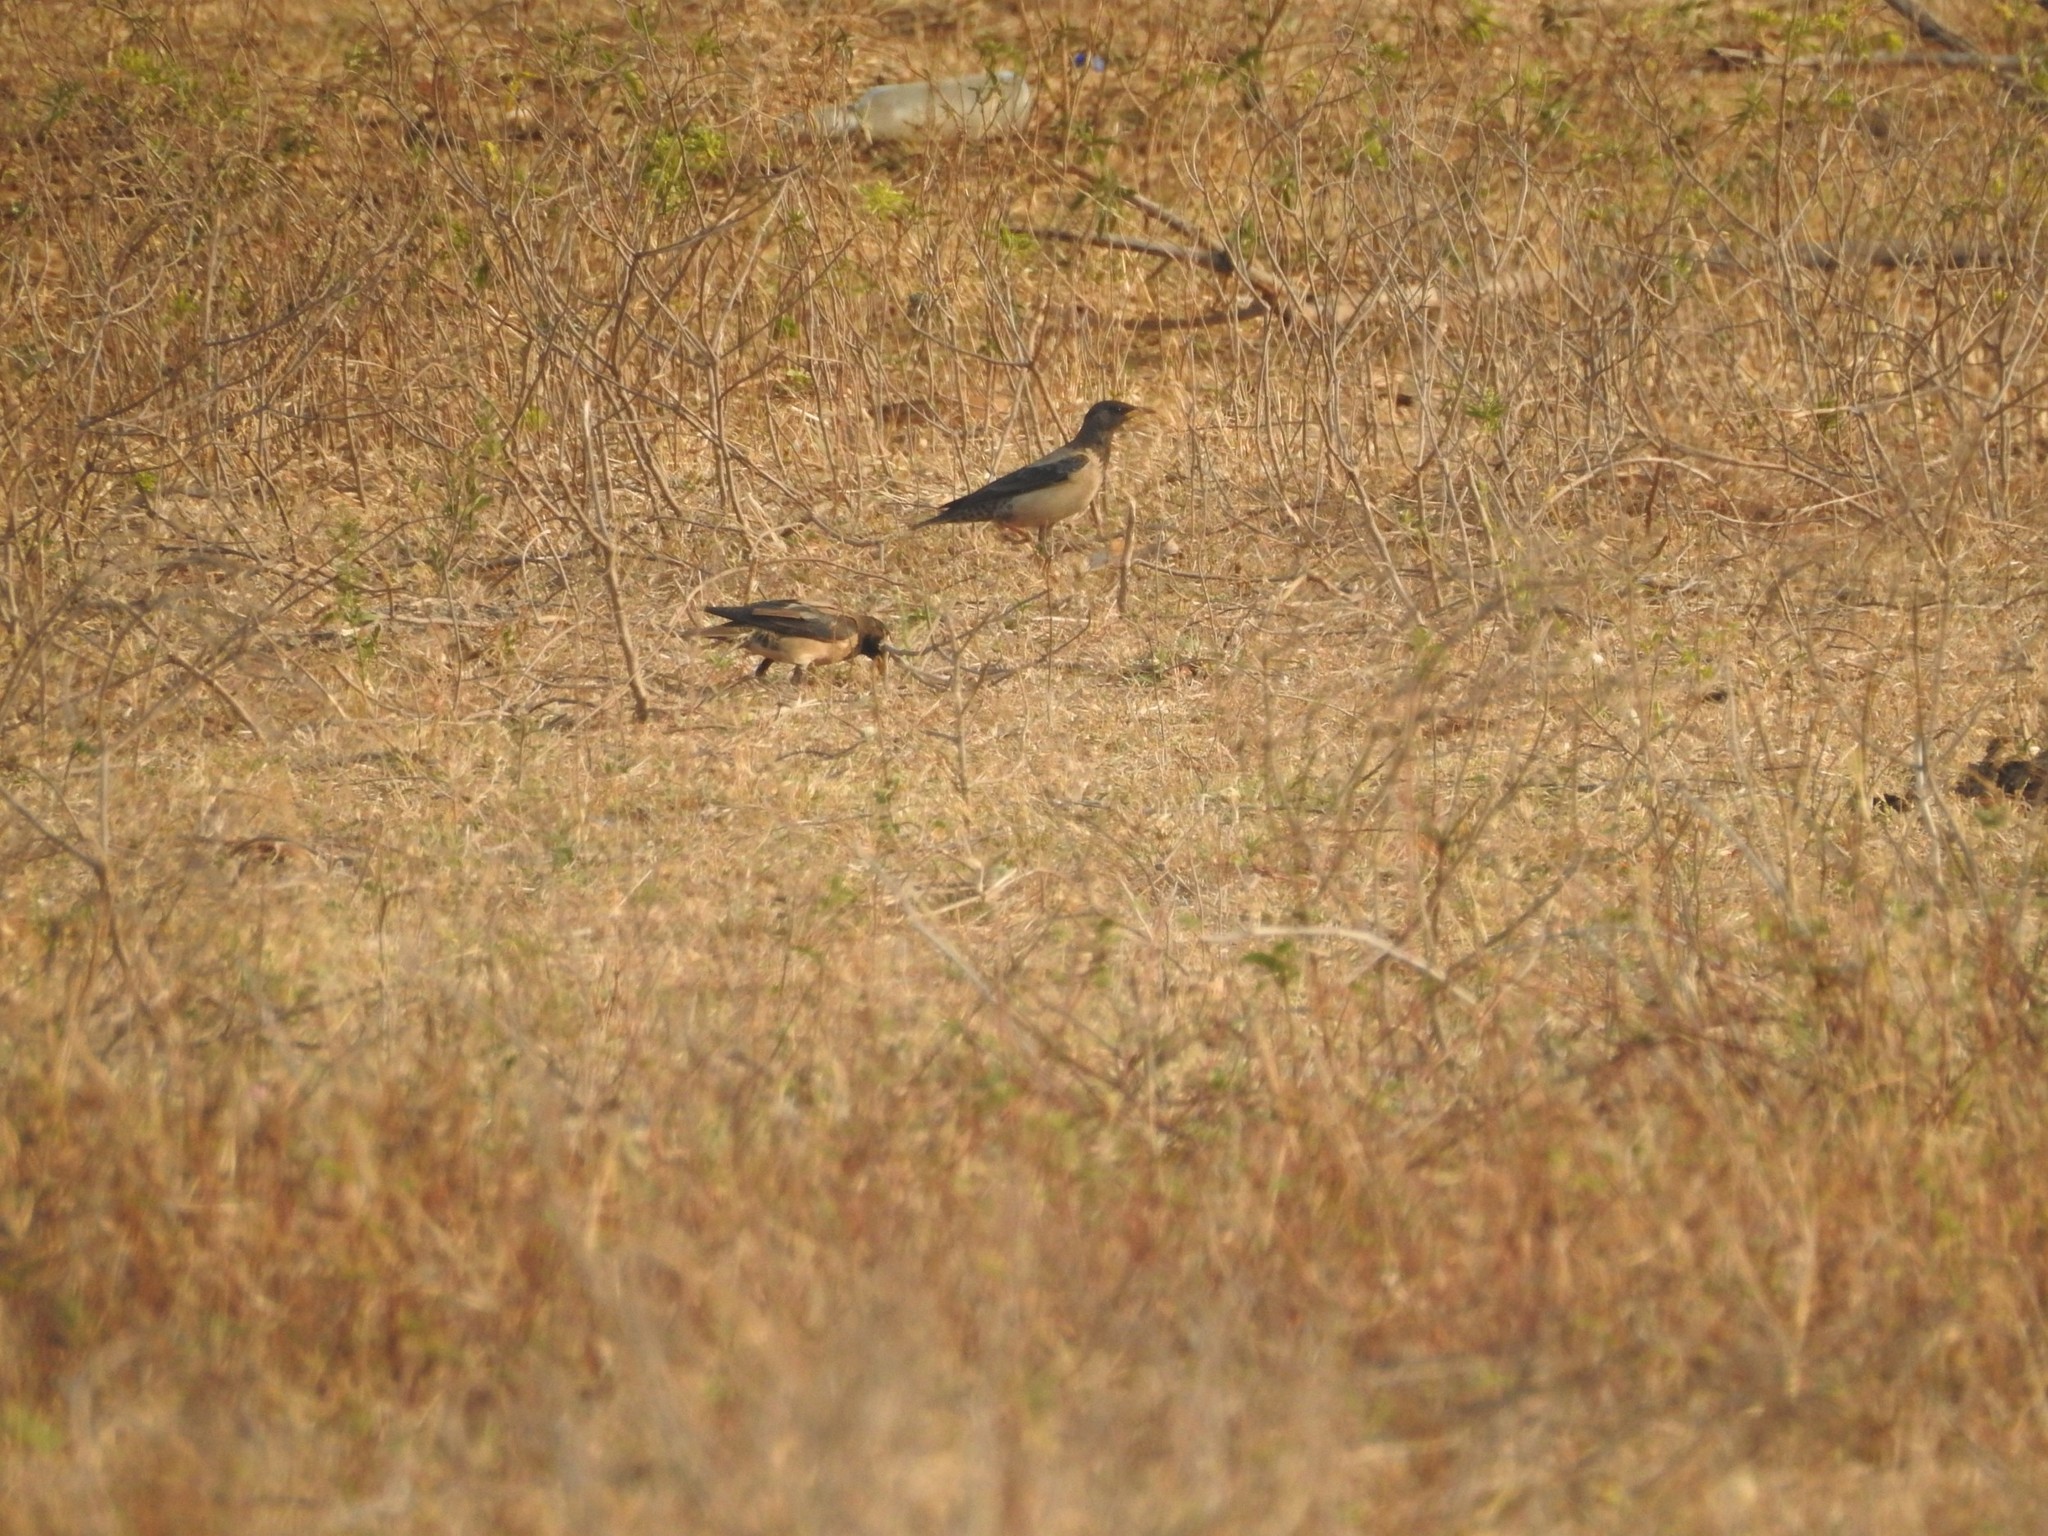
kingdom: Animalia
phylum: Chordata
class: Aves
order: Passeriformes
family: Sturnidae
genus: Pastor
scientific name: Pastor roseus
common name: Rosy starling
